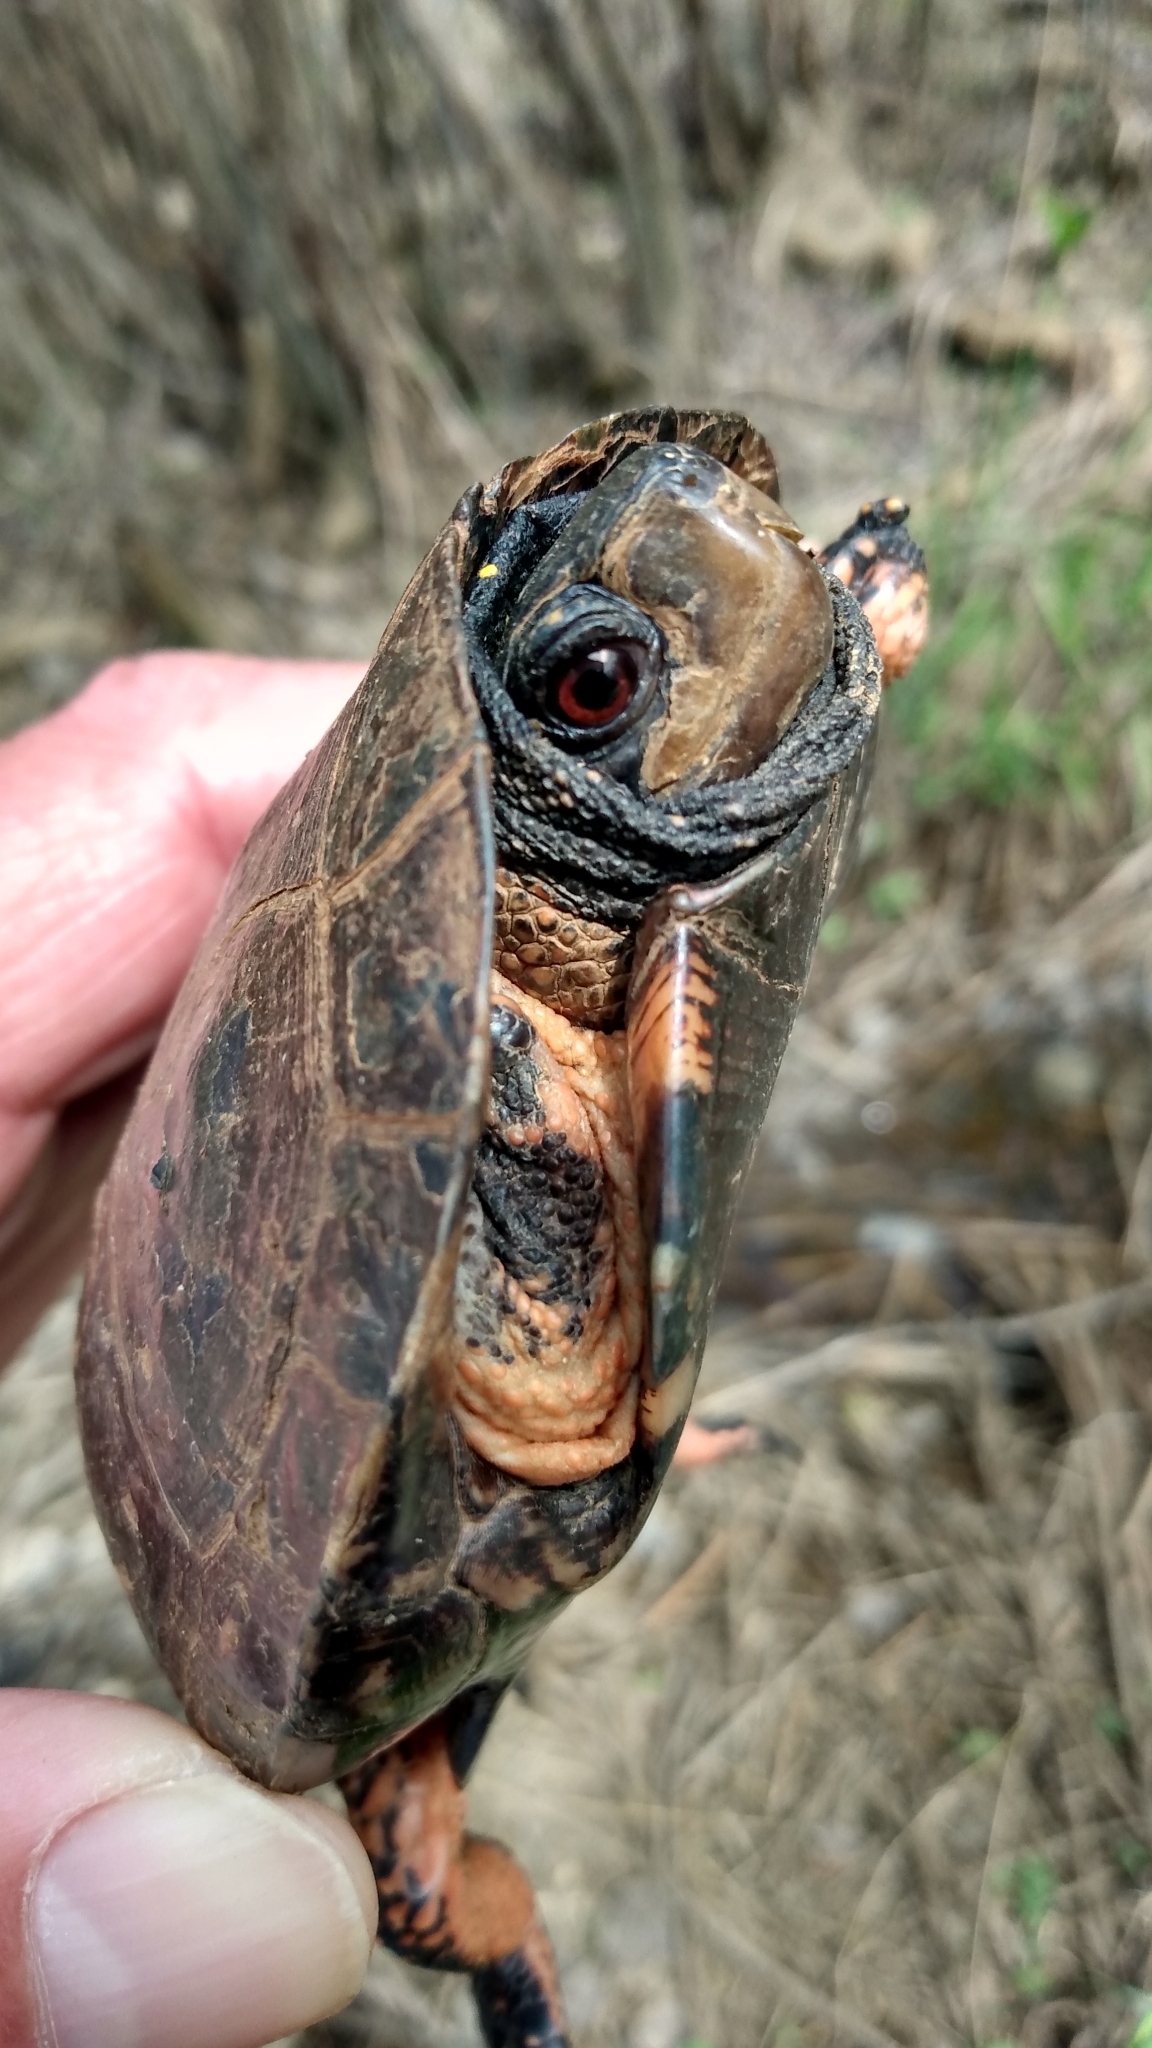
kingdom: Animalia
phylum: Chordata
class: Testudines
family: Emydidae
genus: Clemmys
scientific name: Clemmys guttata
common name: Spotted turtle
